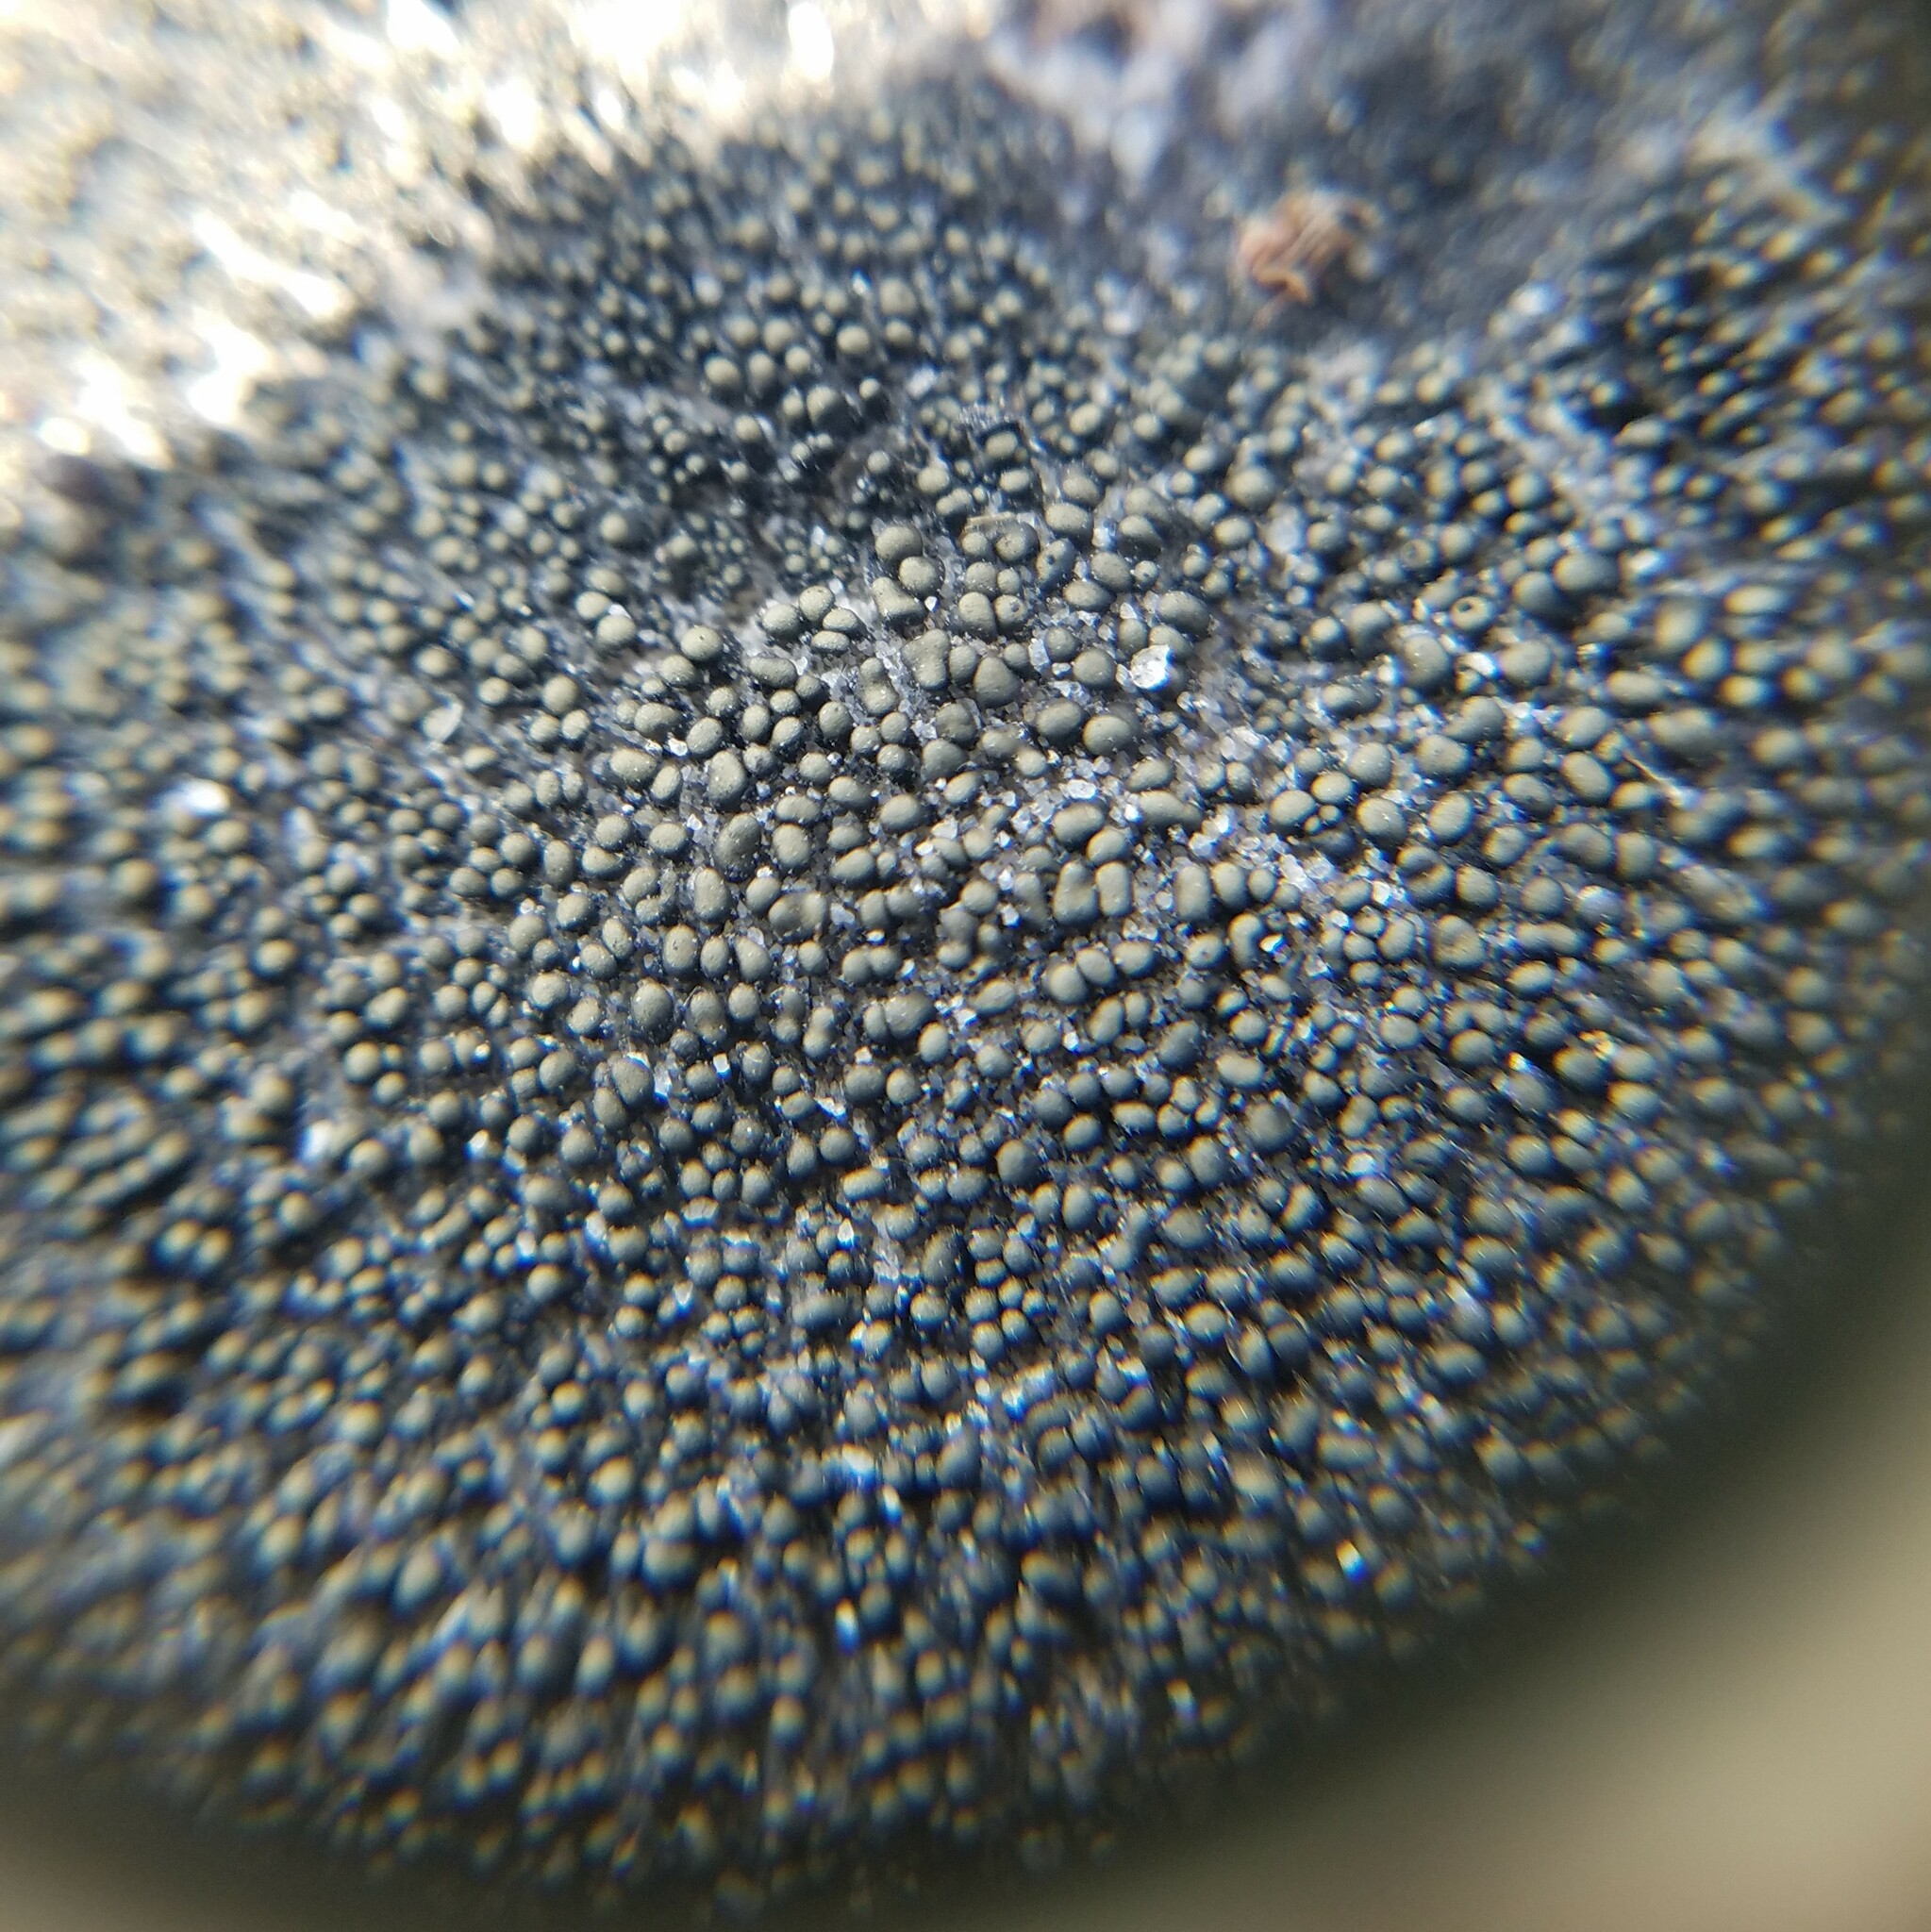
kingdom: Fungi
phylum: Ascomycota
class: Lichinomycetes
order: Lichinales
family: Peltulaceae
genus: Peltula
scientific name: Peltula cylindrica
